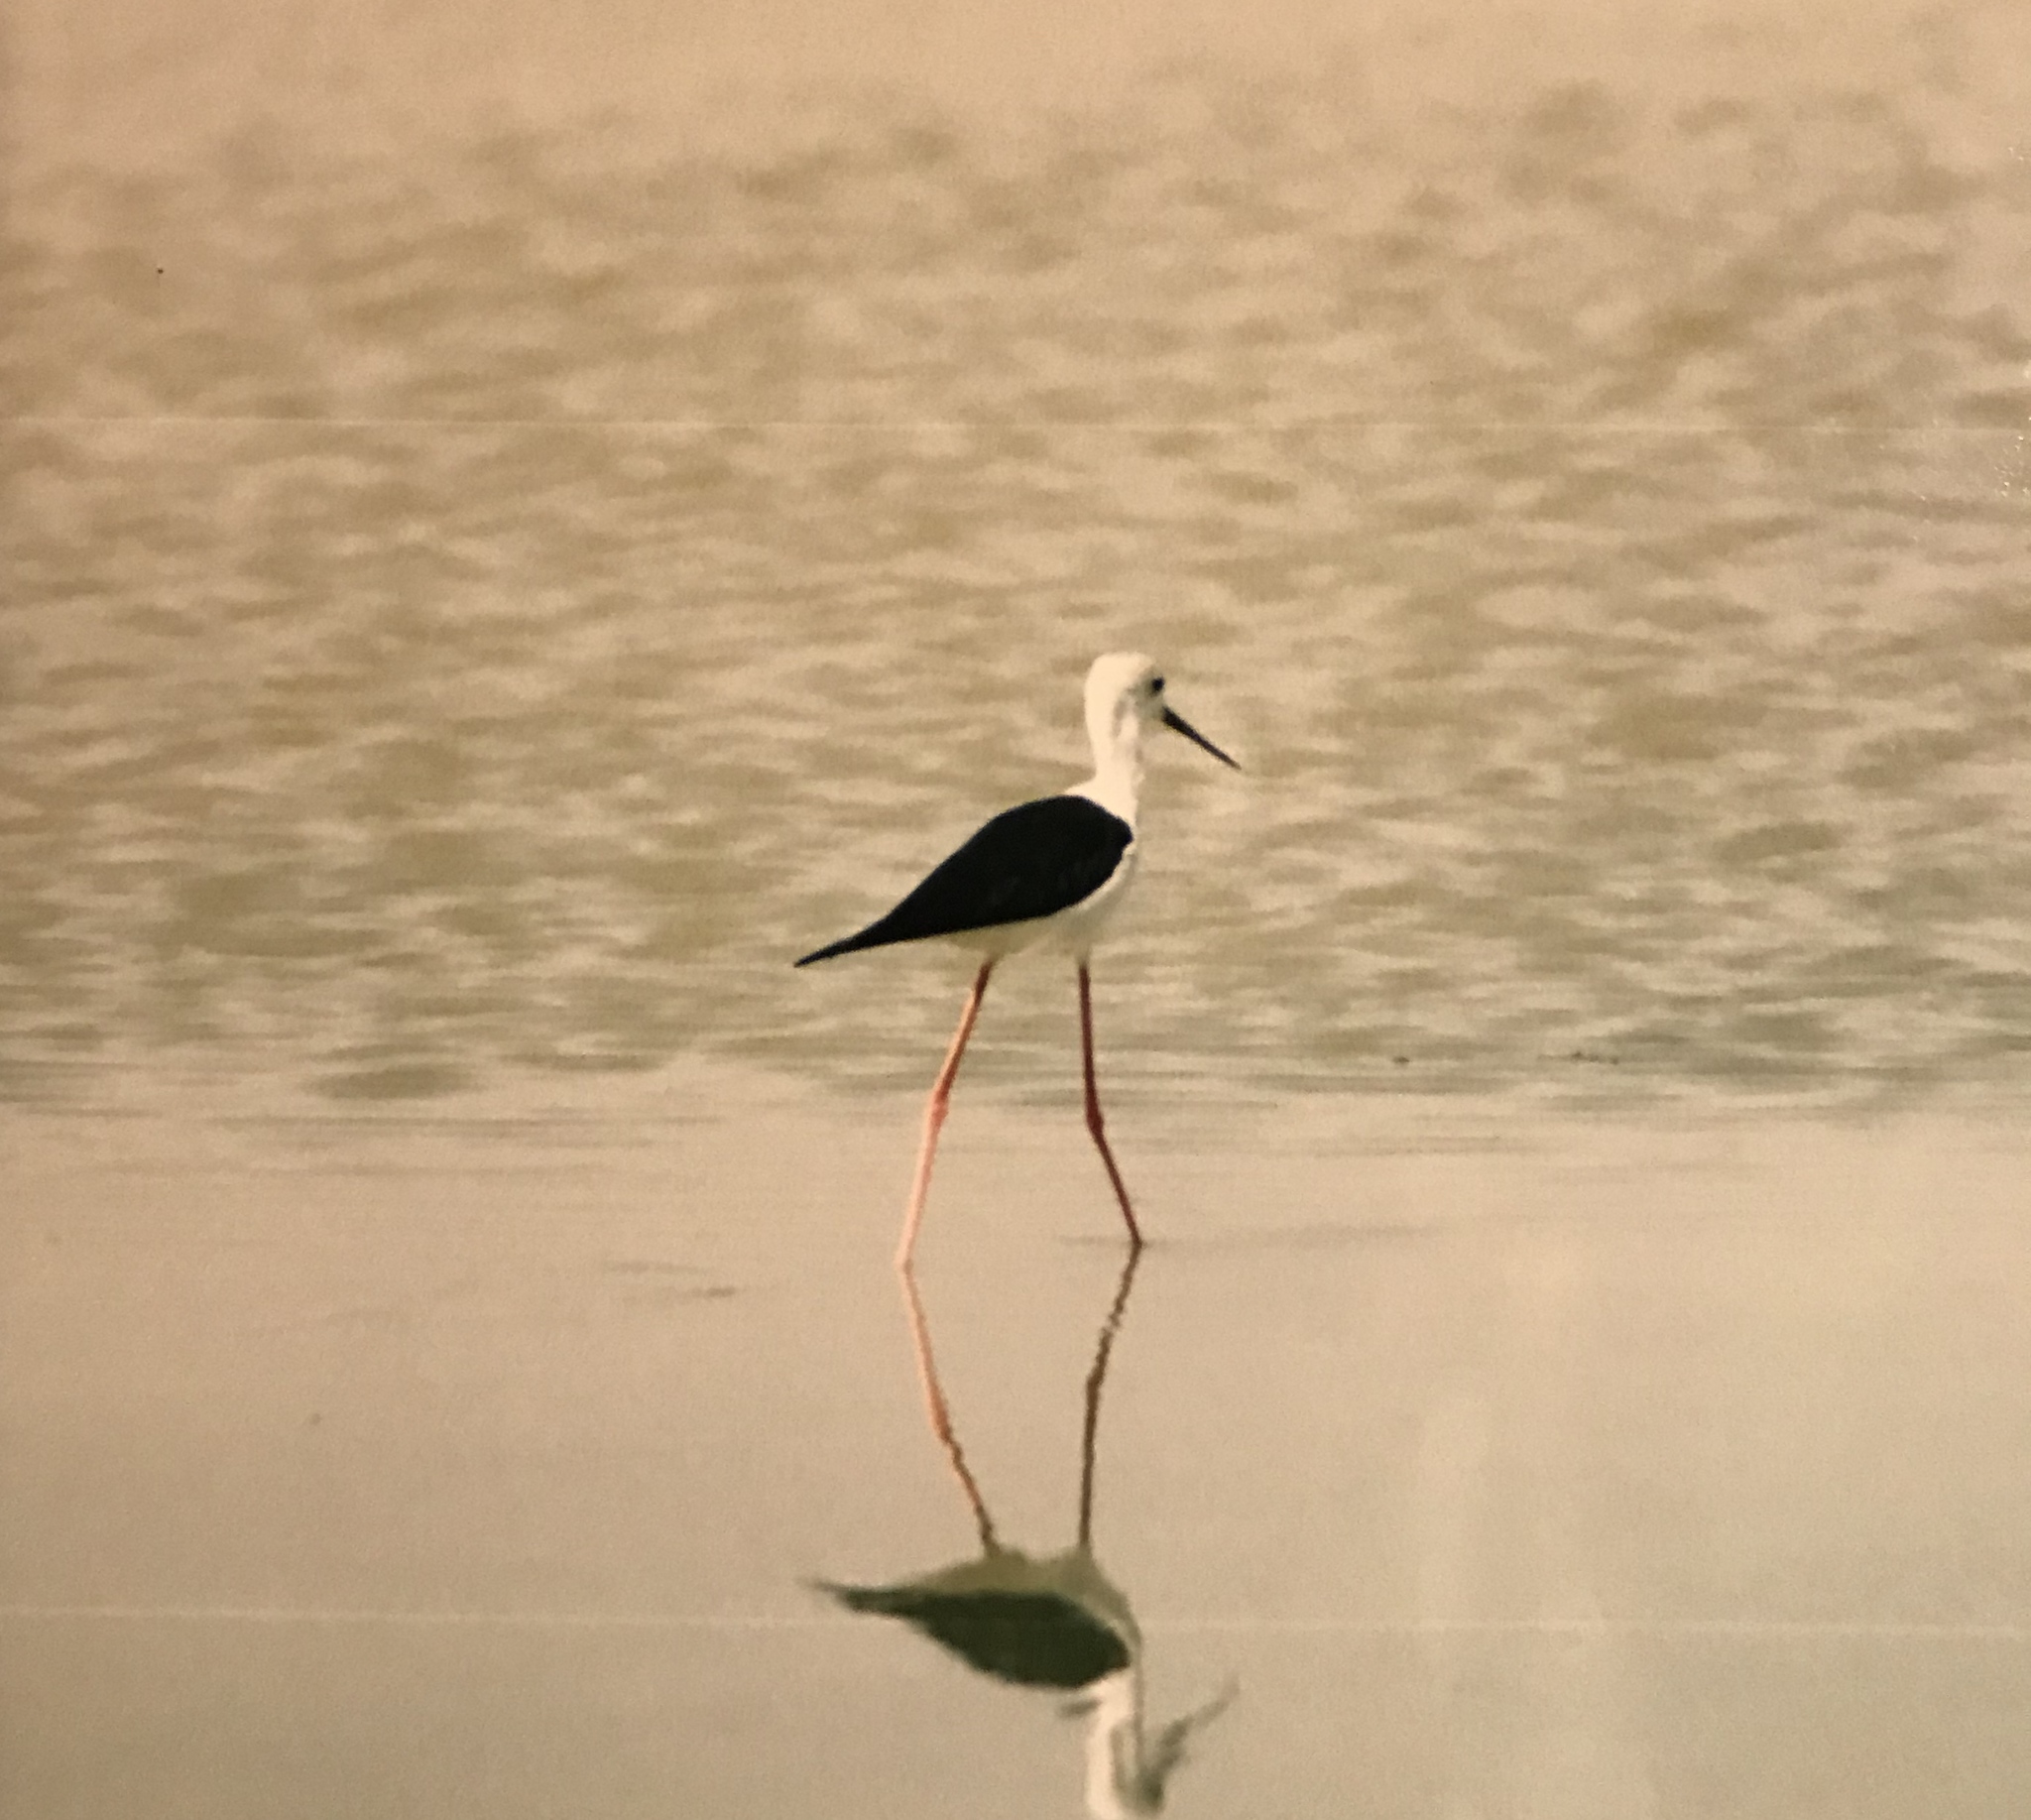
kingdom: Animalia
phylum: Chordata
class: Aves
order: Charadriiformes
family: Recurvirostridae
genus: Himantopus
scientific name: Himantopus himantopus
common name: Black-winged stilt
